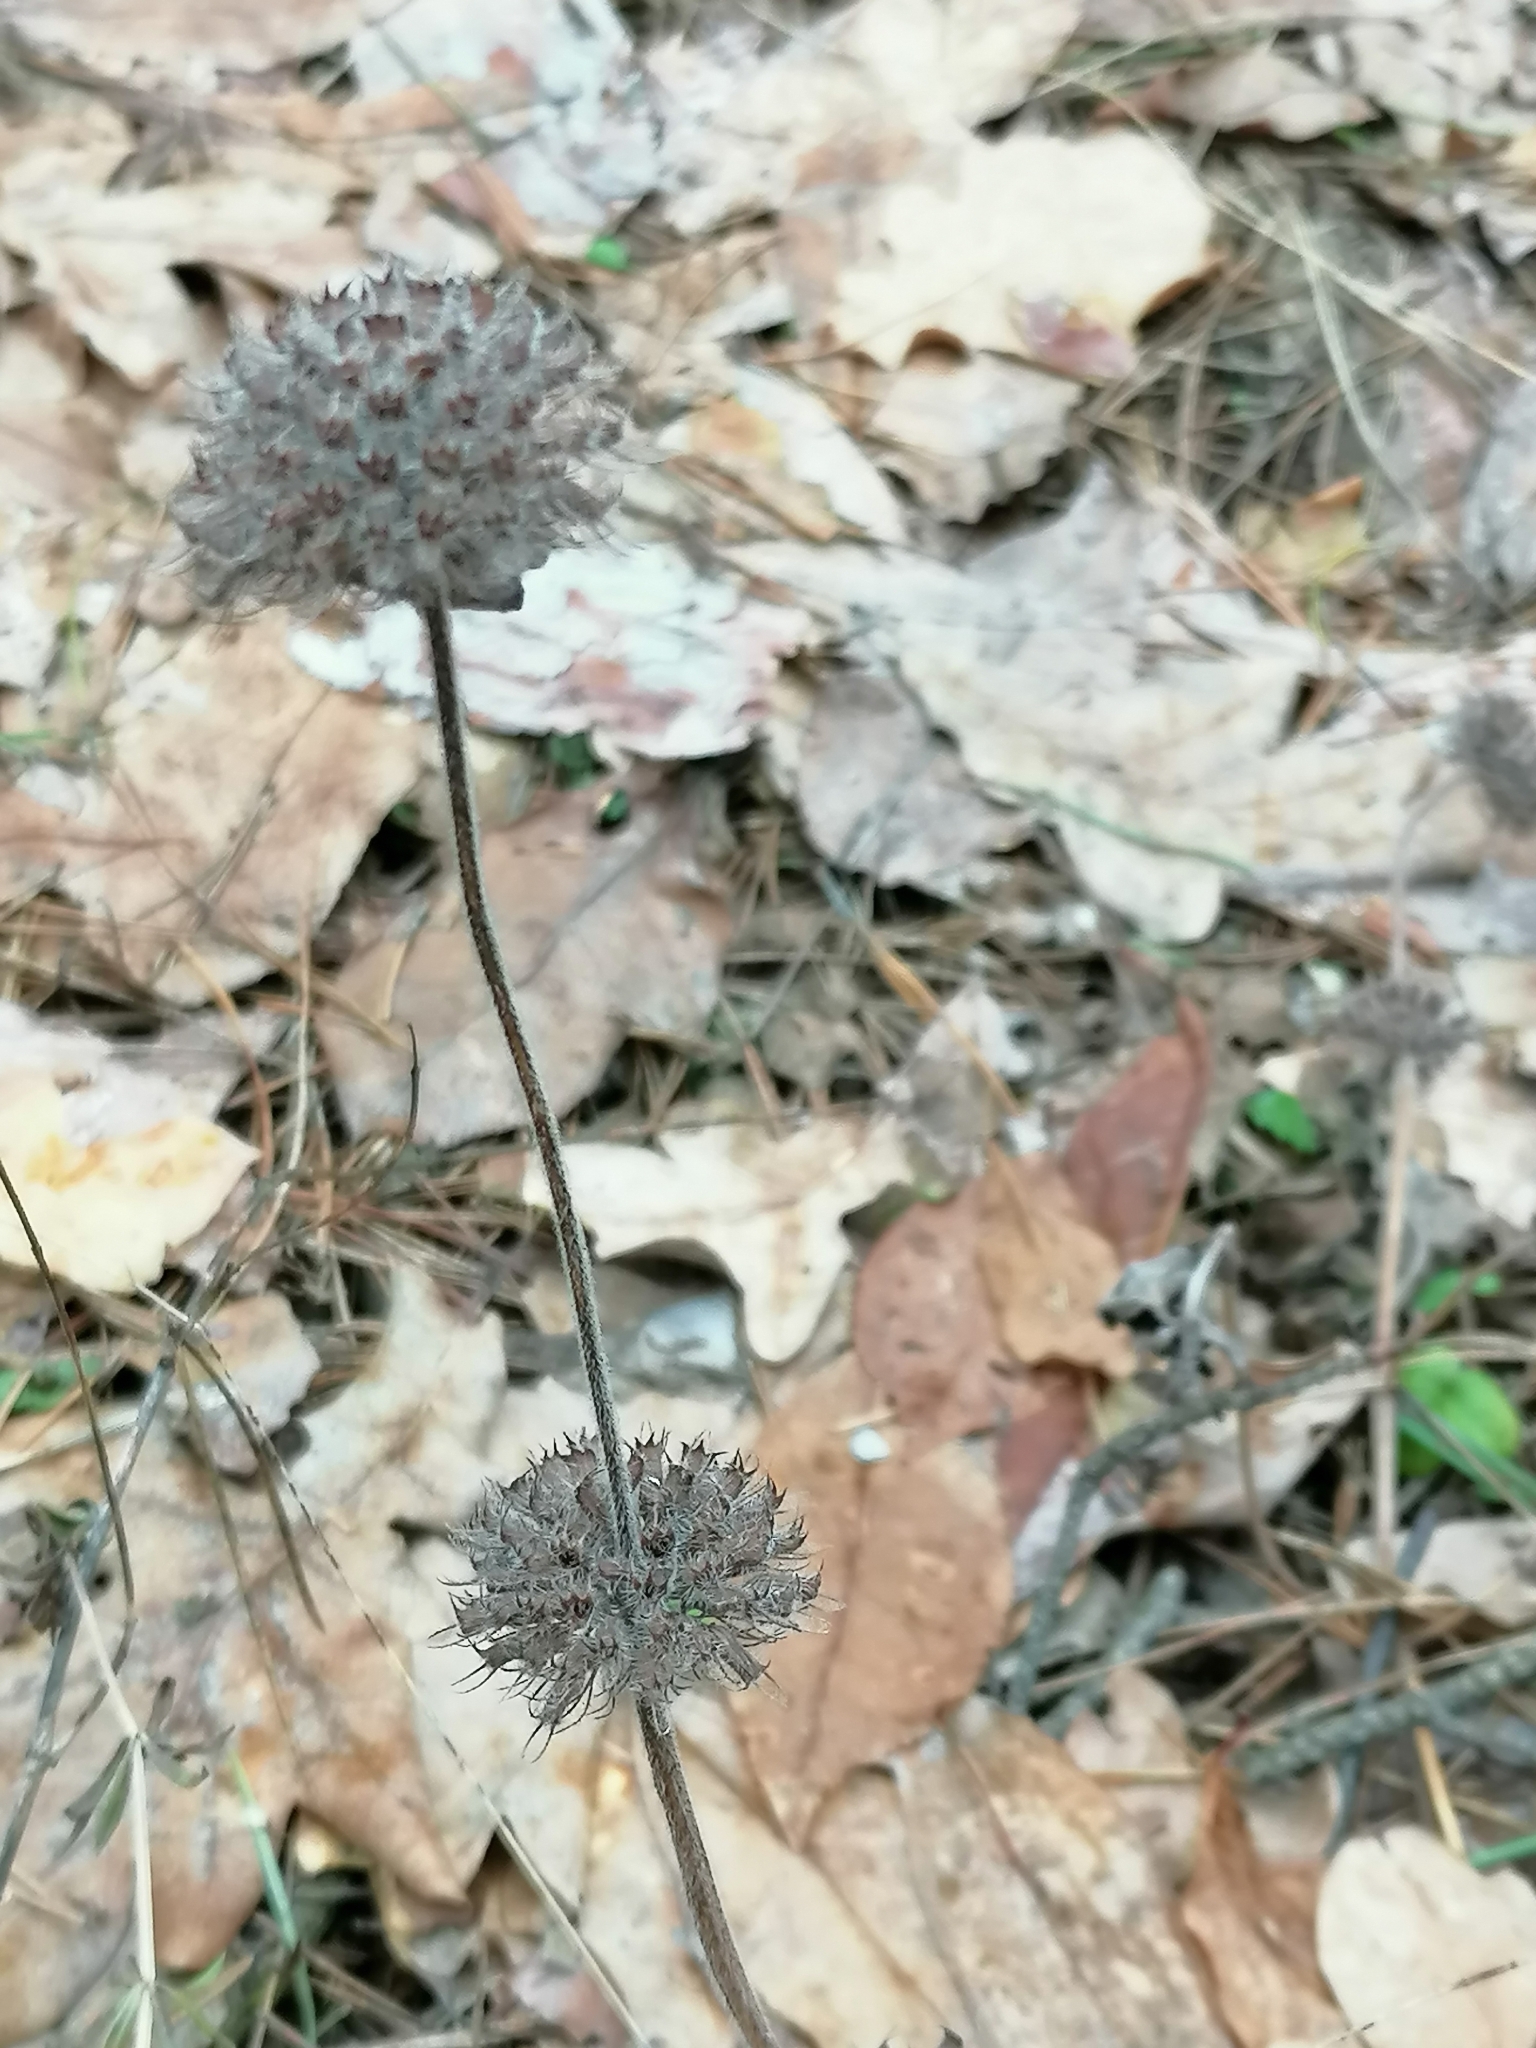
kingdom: Plantae
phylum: Tracheophyta
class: Magnoliopsida
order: Lamiales
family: Lamiaceae
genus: Clinopodium
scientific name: Clinopodium vulgare
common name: Wild basil
